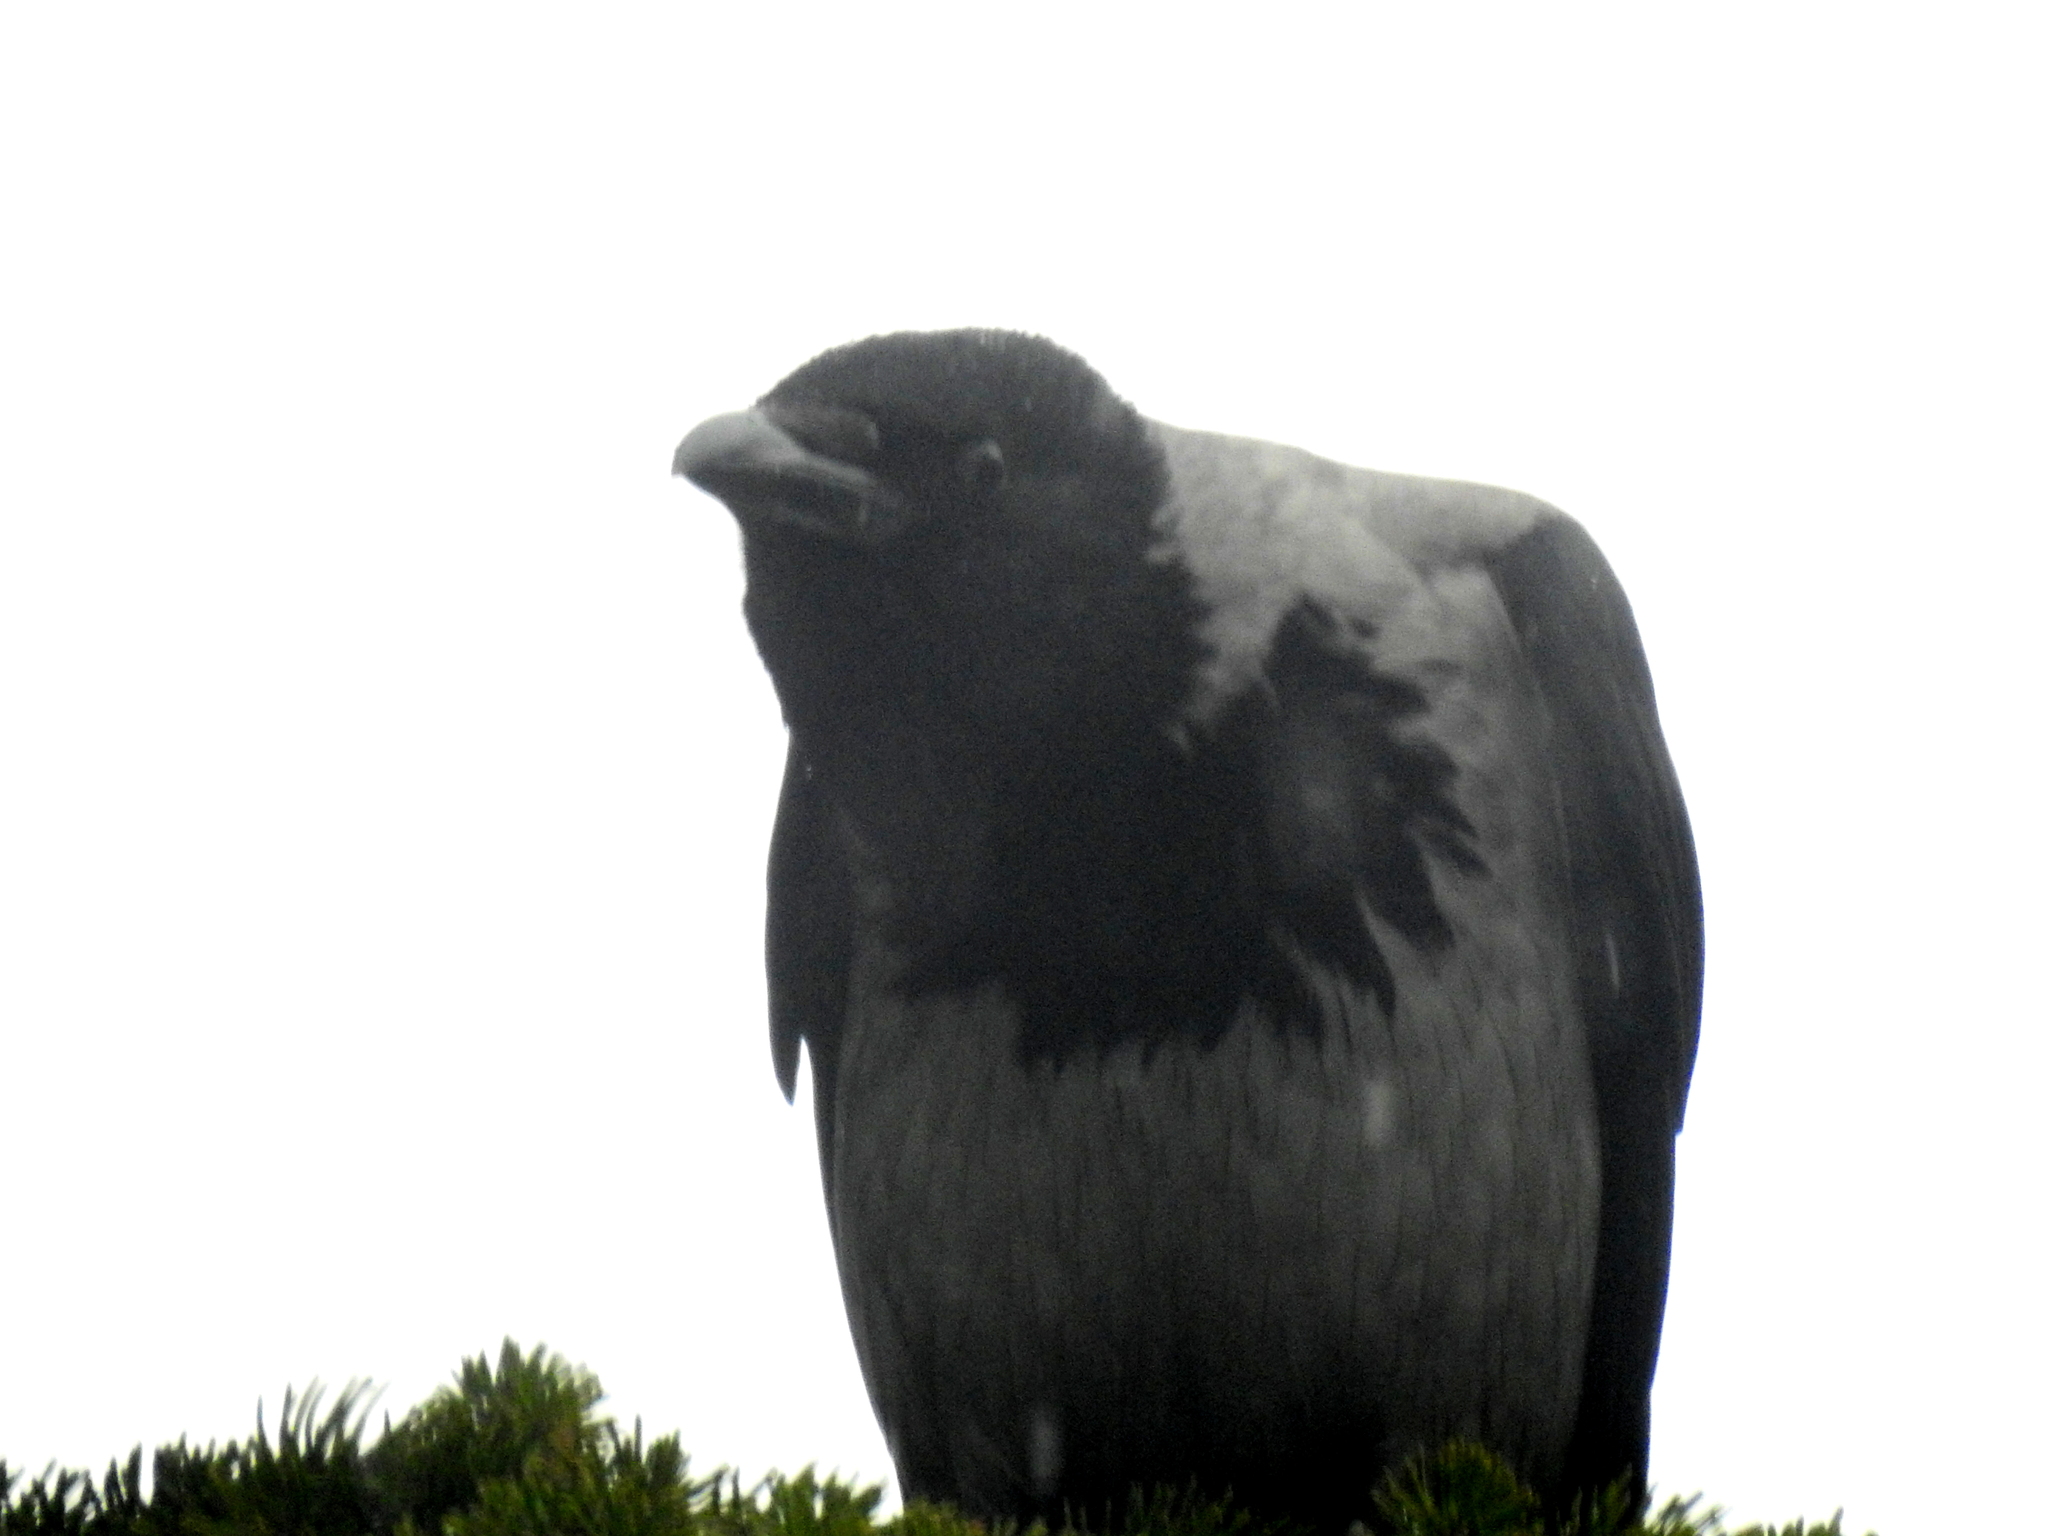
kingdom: Animalia
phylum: Chordata
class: Aves
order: Passeriformes
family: Corvidae
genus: Corvus
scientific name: Corvus cornix
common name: Hooded crow
